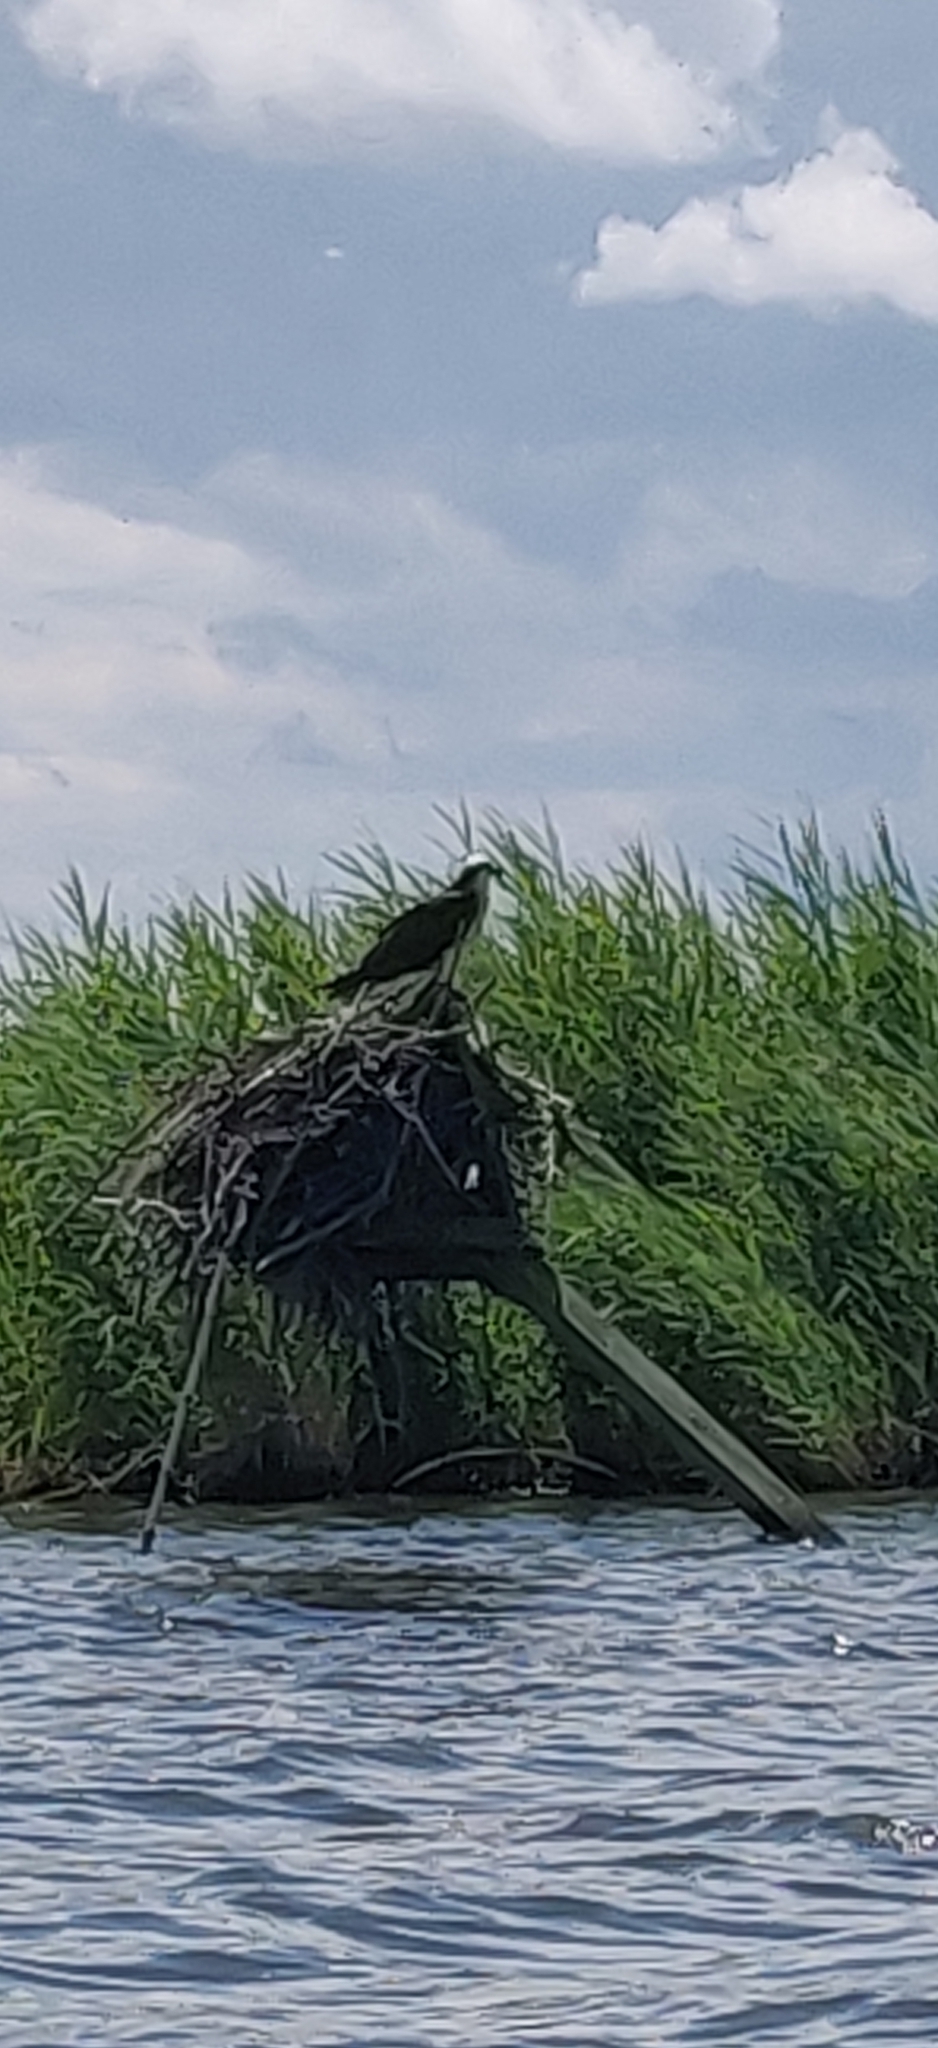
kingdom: Animalia
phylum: Chordata
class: Aves
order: Accipitriformes
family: Pandionidae
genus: Pandion
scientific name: Pandion haliaetus
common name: Osprey
